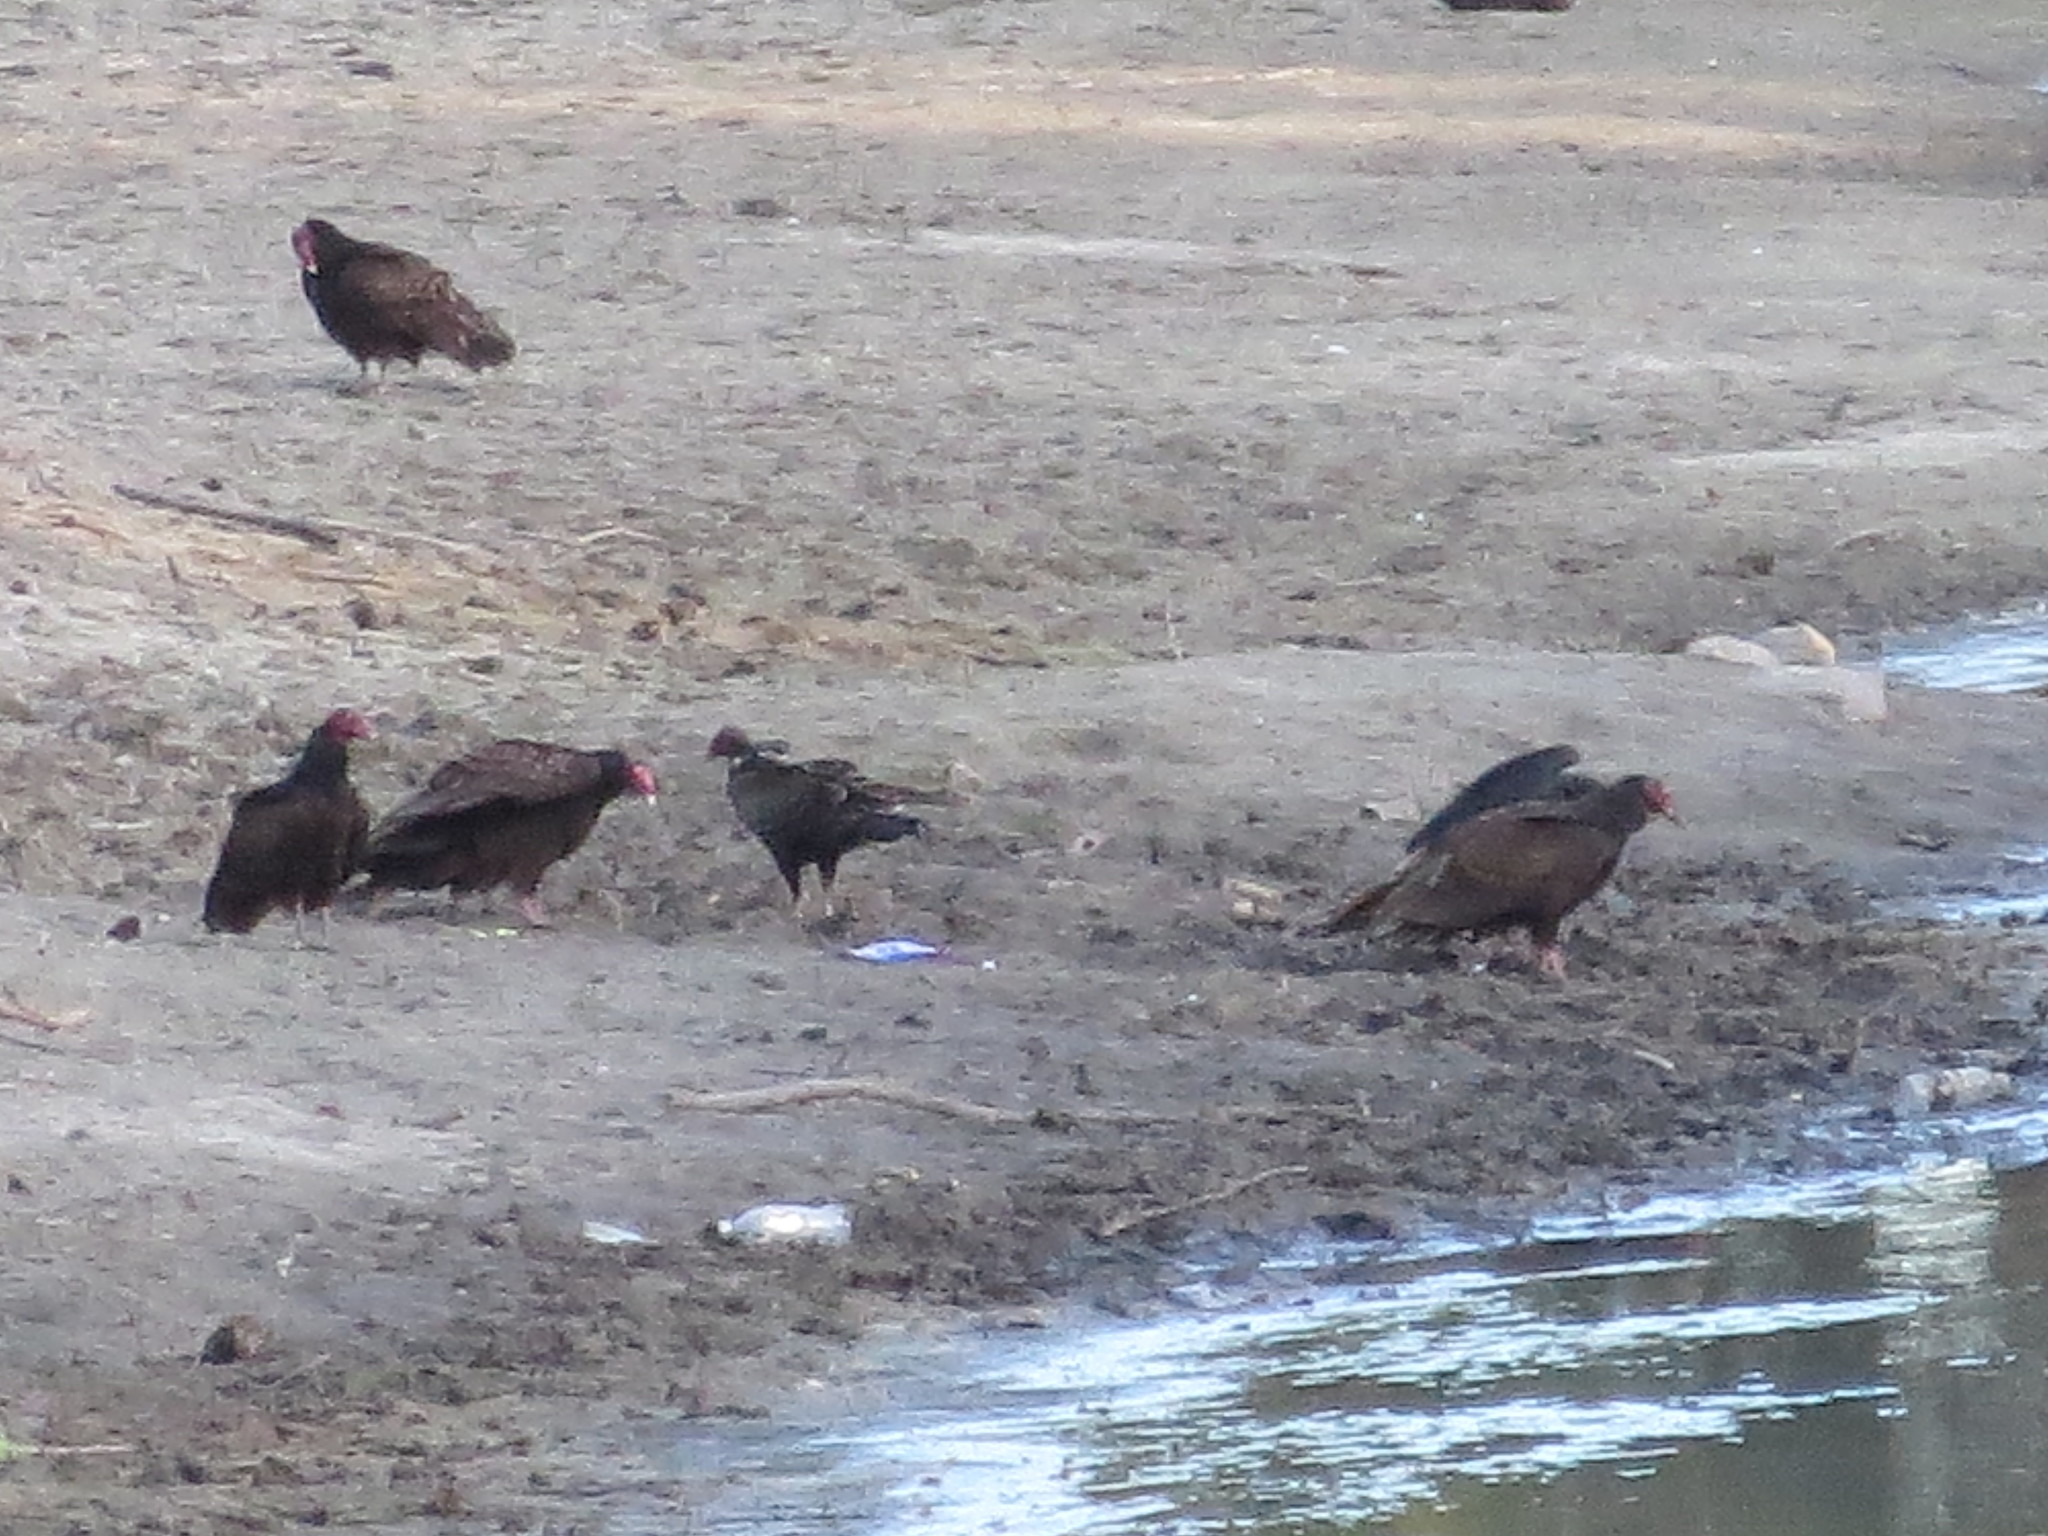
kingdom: Animalia
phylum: Chordata
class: Aves
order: Accipitriformes
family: Cathartidae
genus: Cathartes
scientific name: Cathartes aura
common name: Turkey vulture
